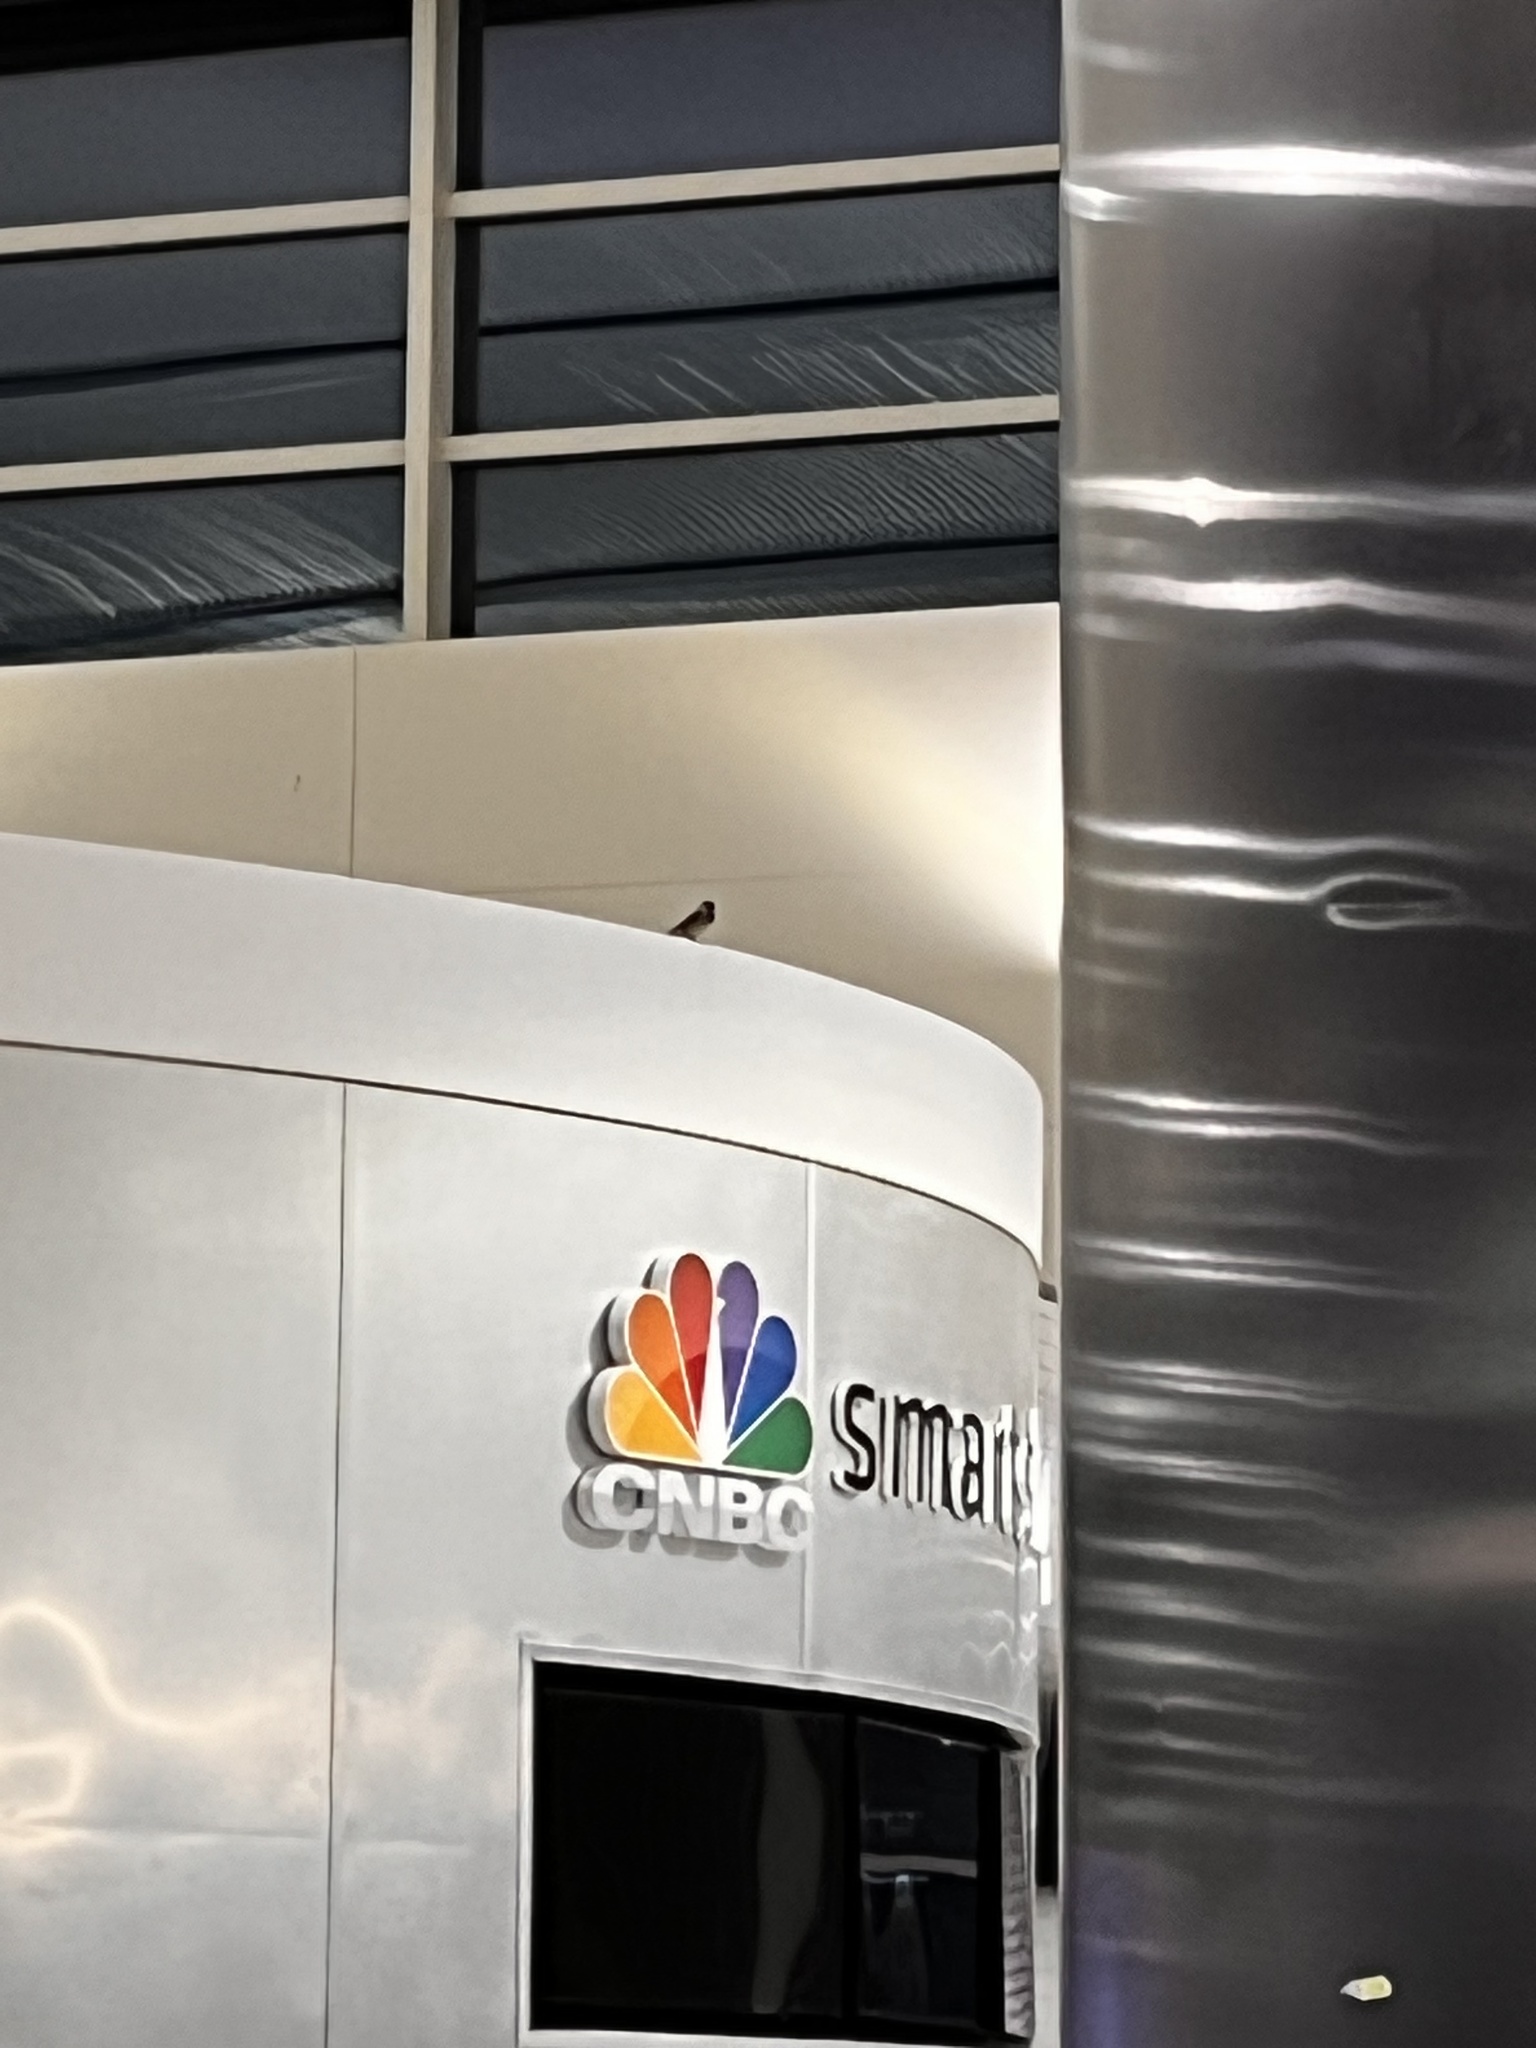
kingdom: Animalia
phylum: Chordata
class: Aves
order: Passeriformes
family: Passeridae
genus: Passer
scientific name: Passer domesticus
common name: House sparrow
